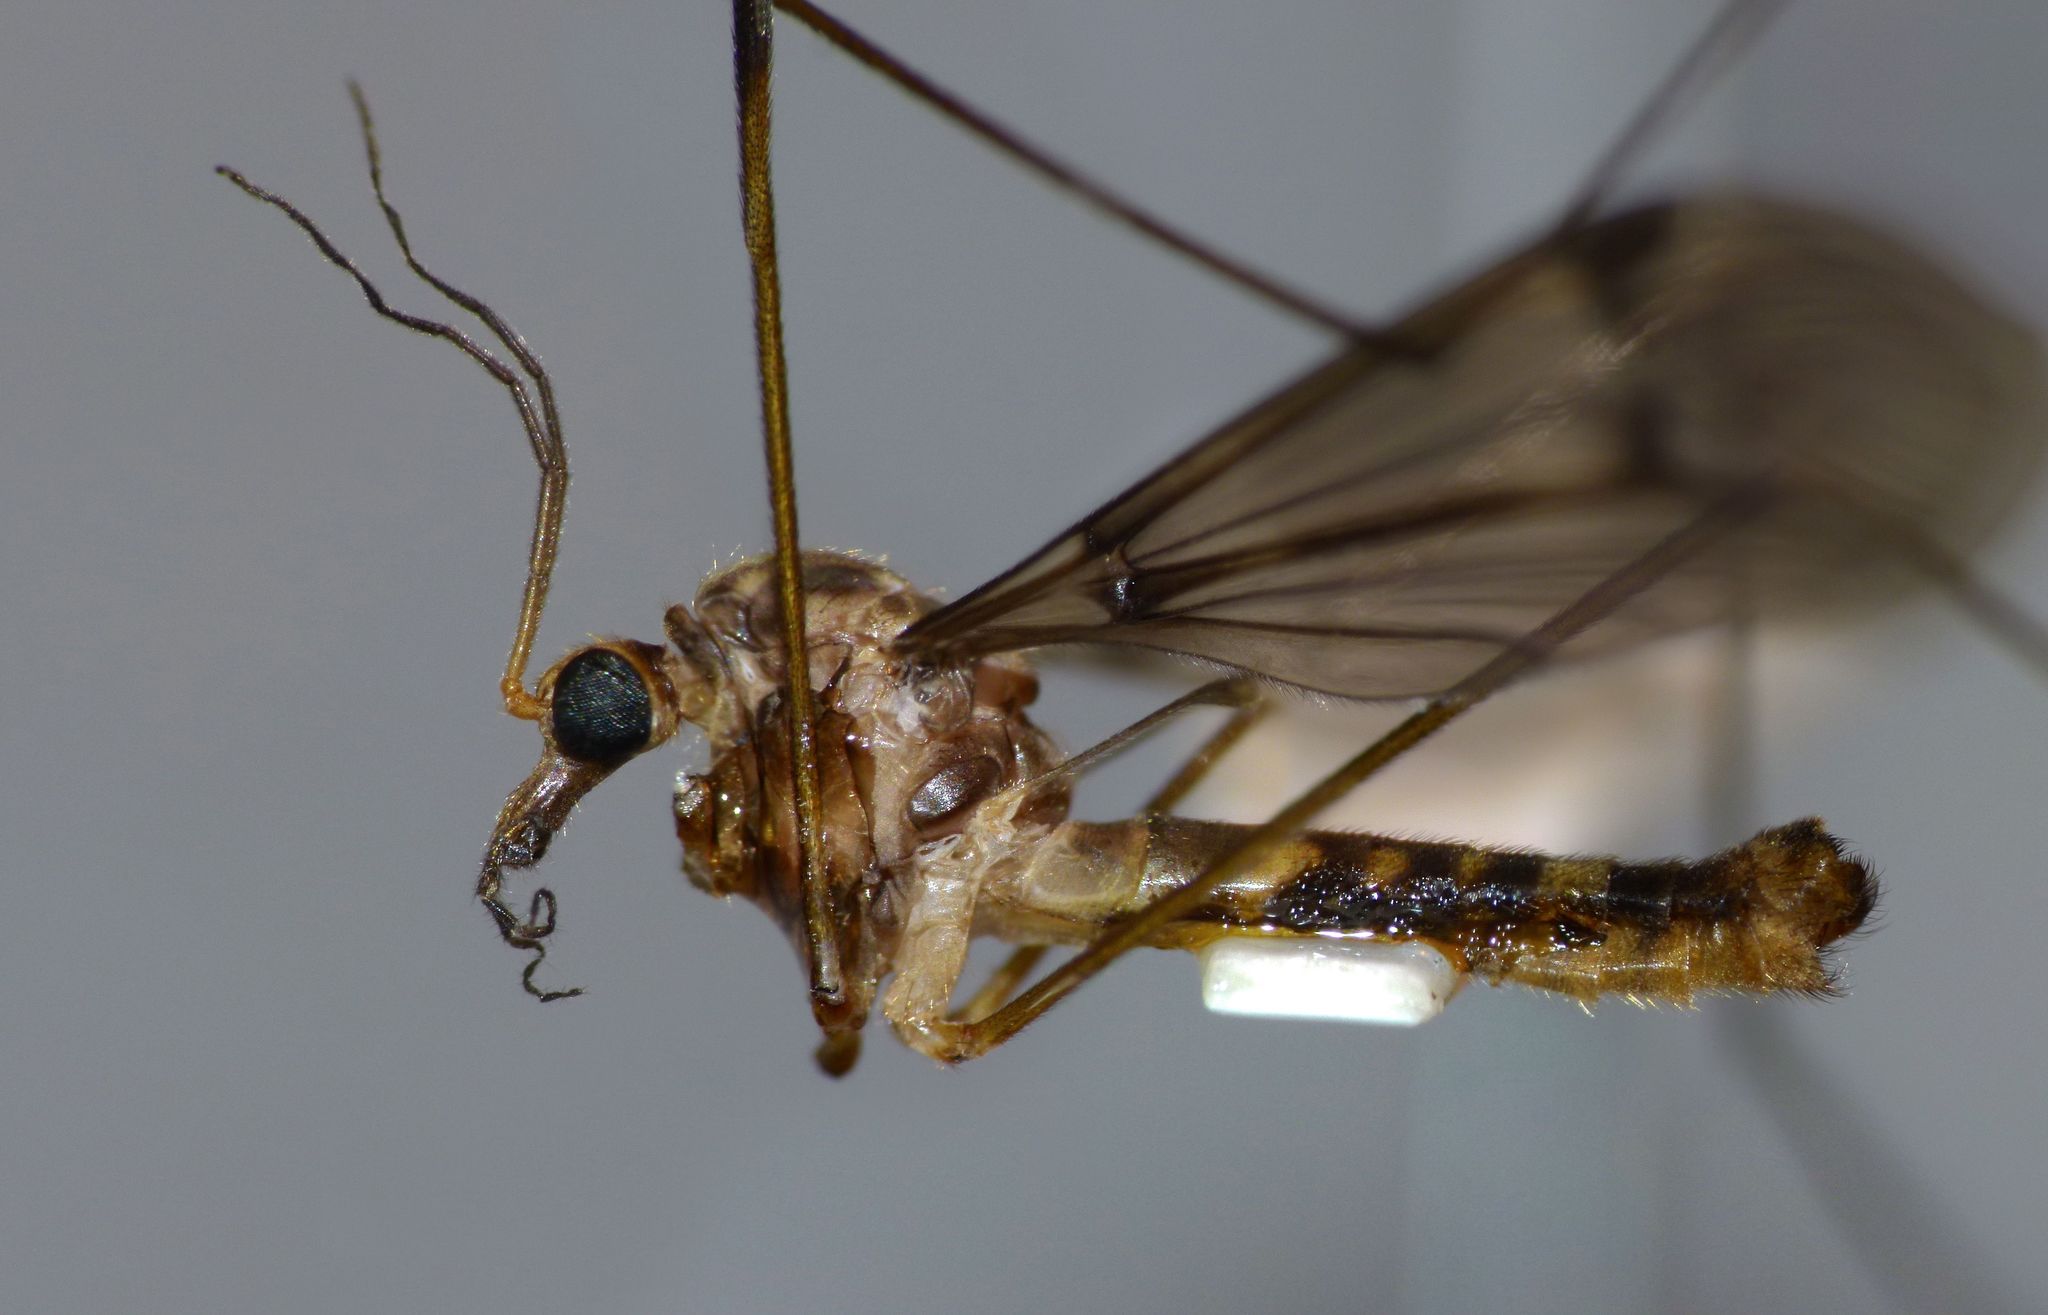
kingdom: Animalia
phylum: Arthropoda
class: Insecta
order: Diptera
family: Tipulidae
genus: Leptotarsus
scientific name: Leptotarsus cubitalis
